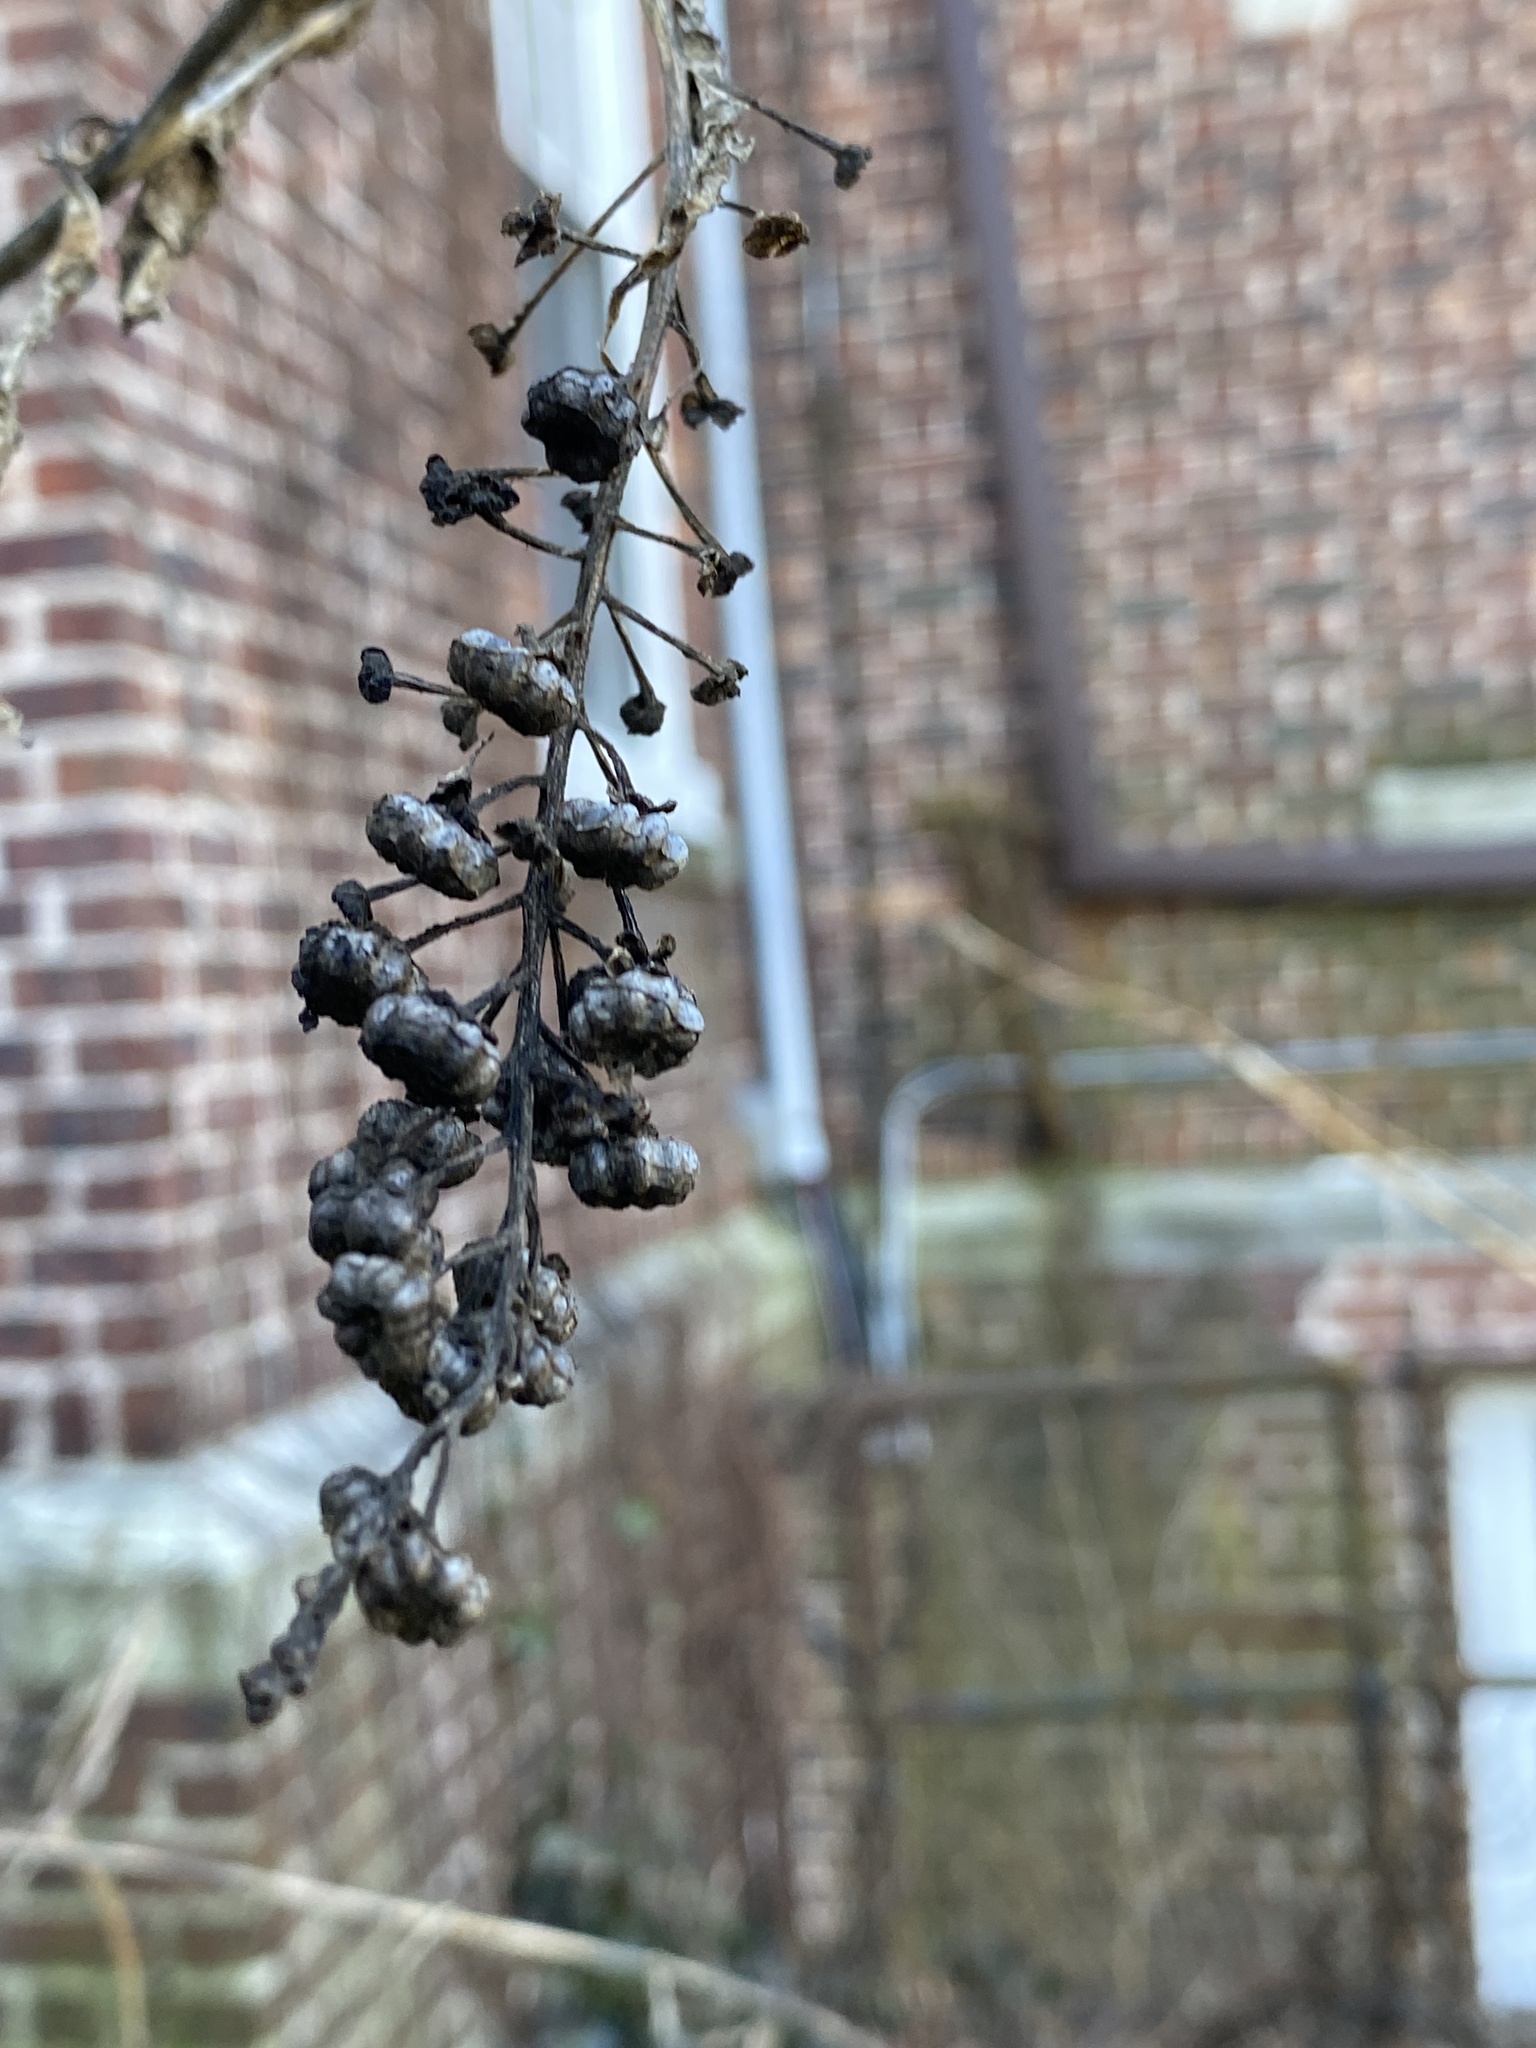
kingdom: Plantae
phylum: Tracheophyta
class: Magnoliopsida
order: Caryophyllales
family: Phytolaccaceae
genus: Phytolacca
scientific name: Phytolacca americana
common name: American pokeweed
